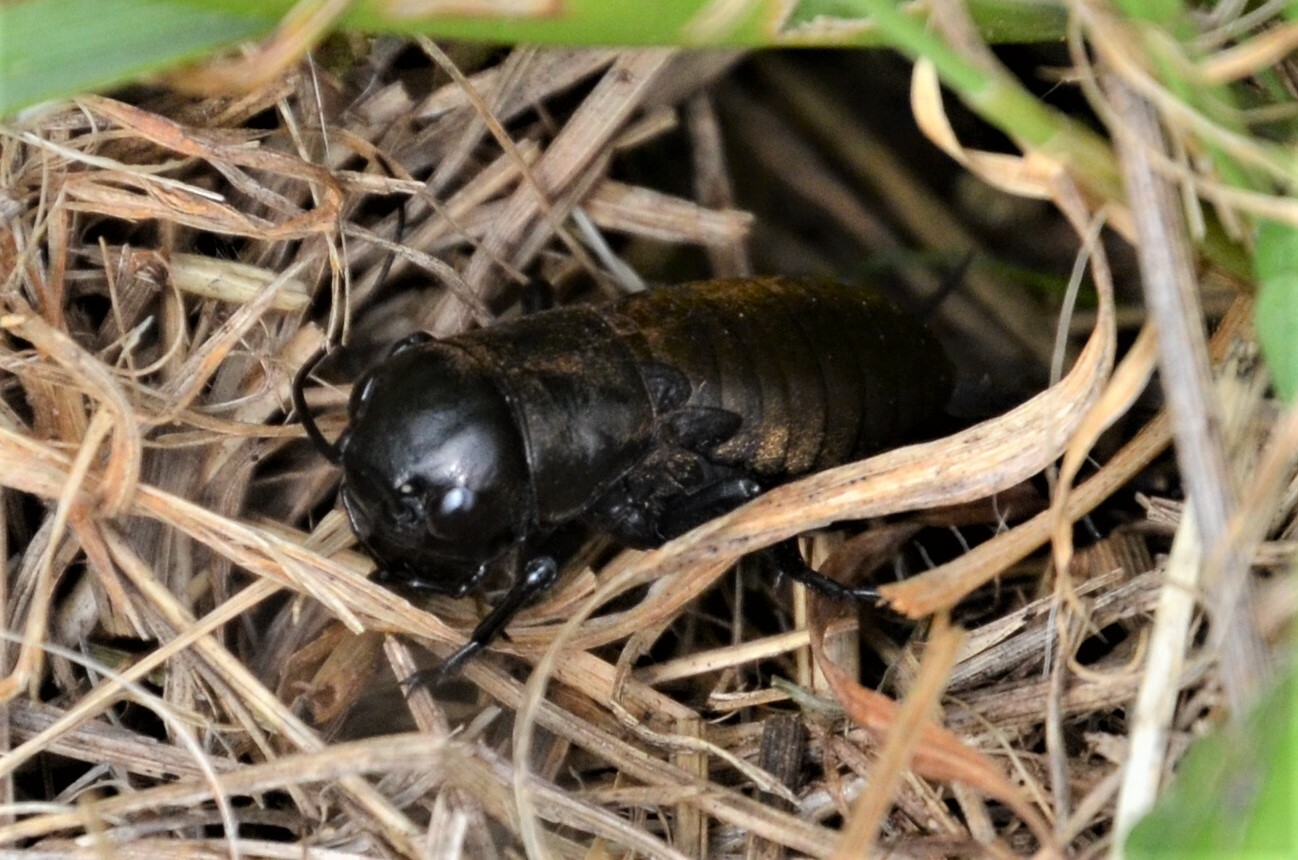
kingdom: Animalia
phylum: Arthropoda
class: Insecta
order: Orthoptera
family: Gryllidae
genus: Gryllus
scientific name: Gryllus campestris
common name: Field cricket
